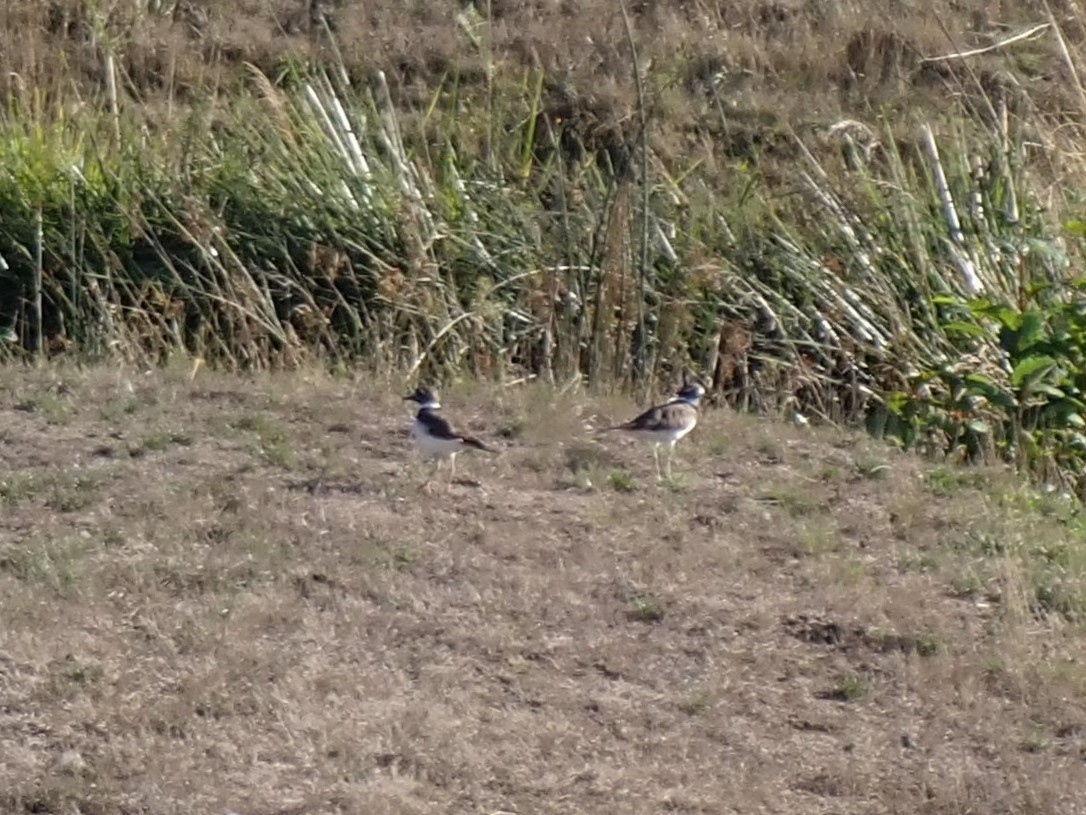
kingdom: Animalia
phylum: Chordata
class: Aves
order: Charadriiformes
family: Charadriidae
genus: Charadrius
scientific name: Charadrius vociferus
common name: Killdeer
